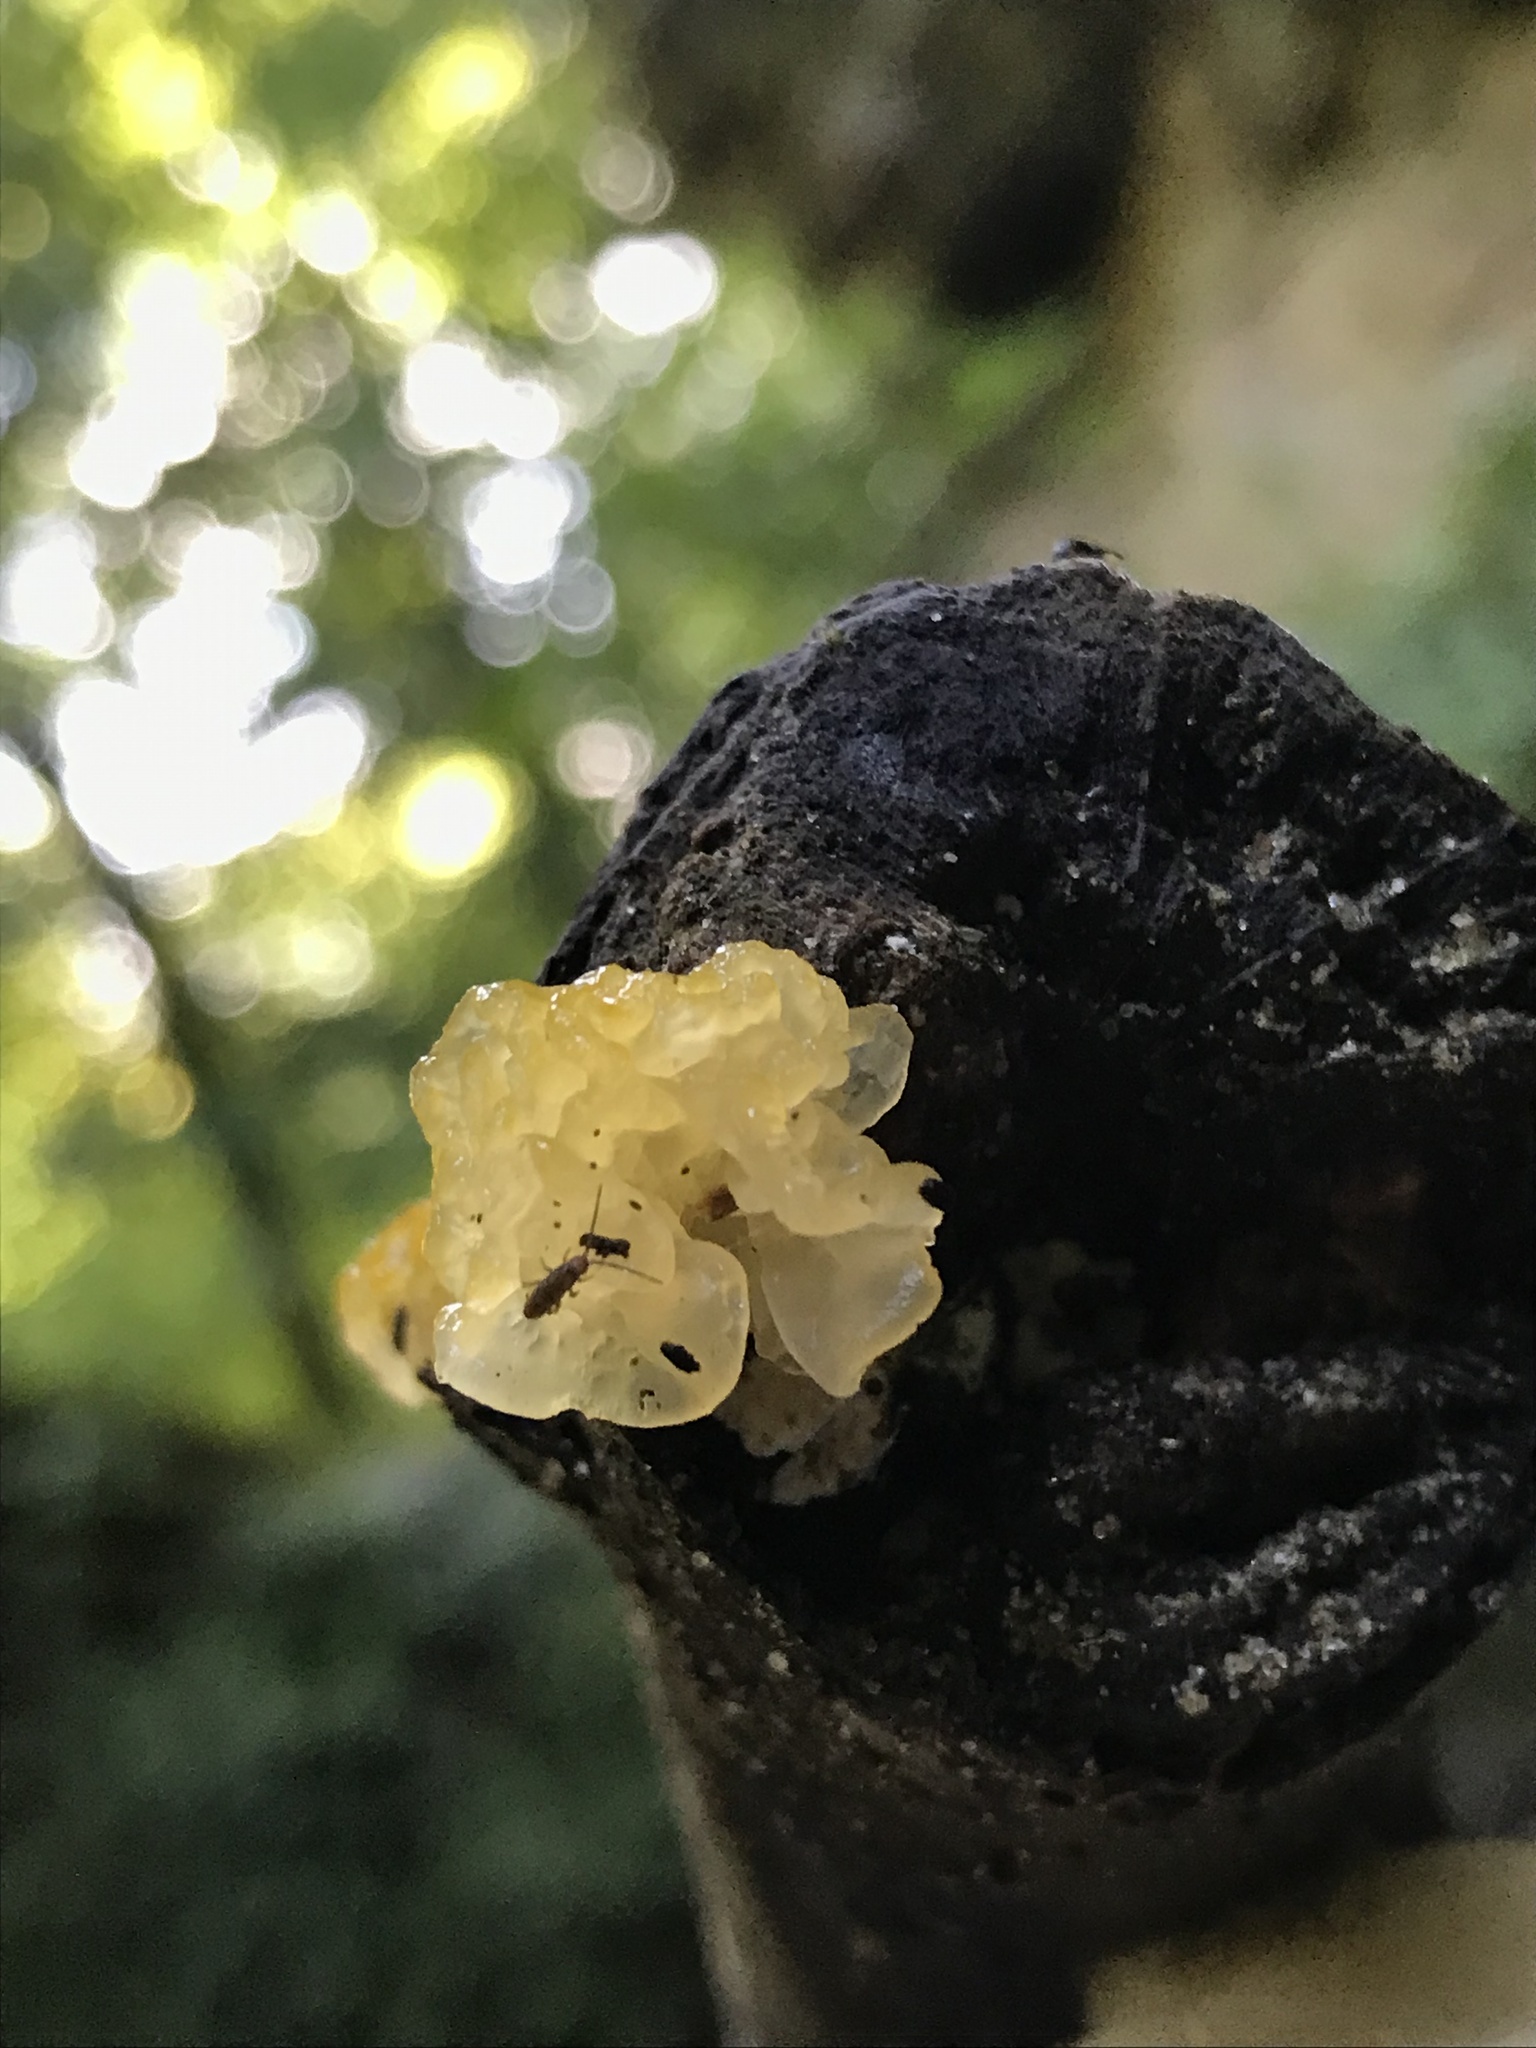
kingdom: Fungi
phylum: Basidiomycota
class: Tremellomycetes
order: Tremellales
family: Tremellaceae
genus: Tremella
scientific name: Tremella mesenterica
